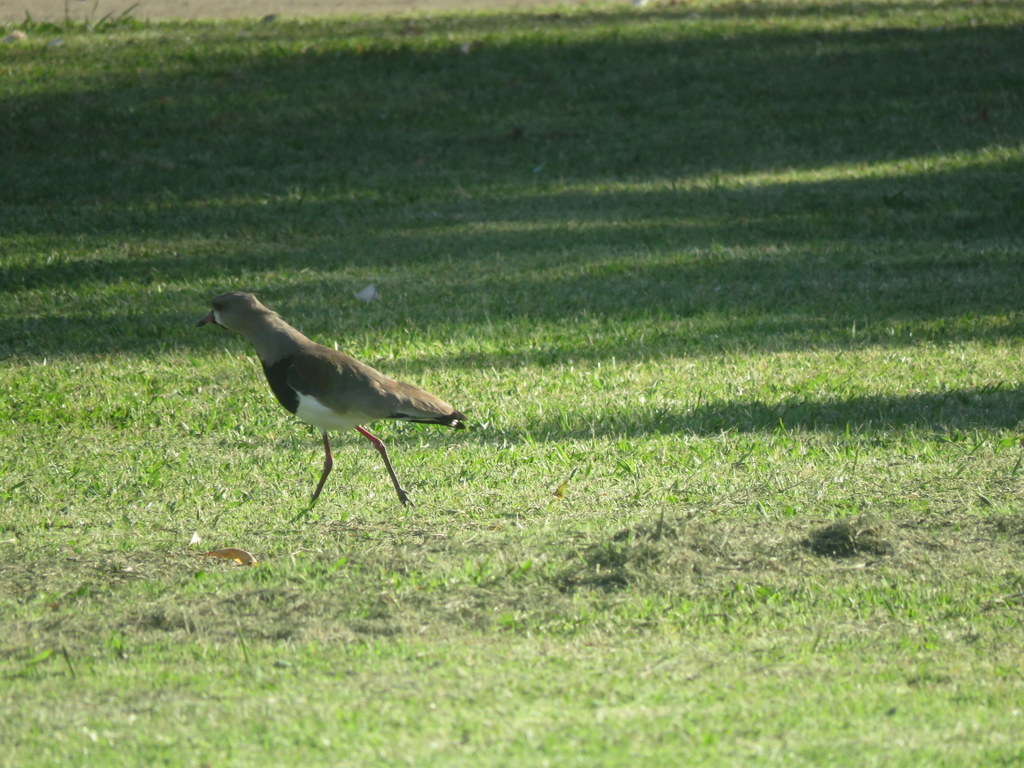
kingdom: Animalia
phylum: Chordata
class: Aves
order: Charadriiformes
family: Charadriidae
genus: Vanellus
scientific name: Vanellus chilensis
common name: Southern lapwing
